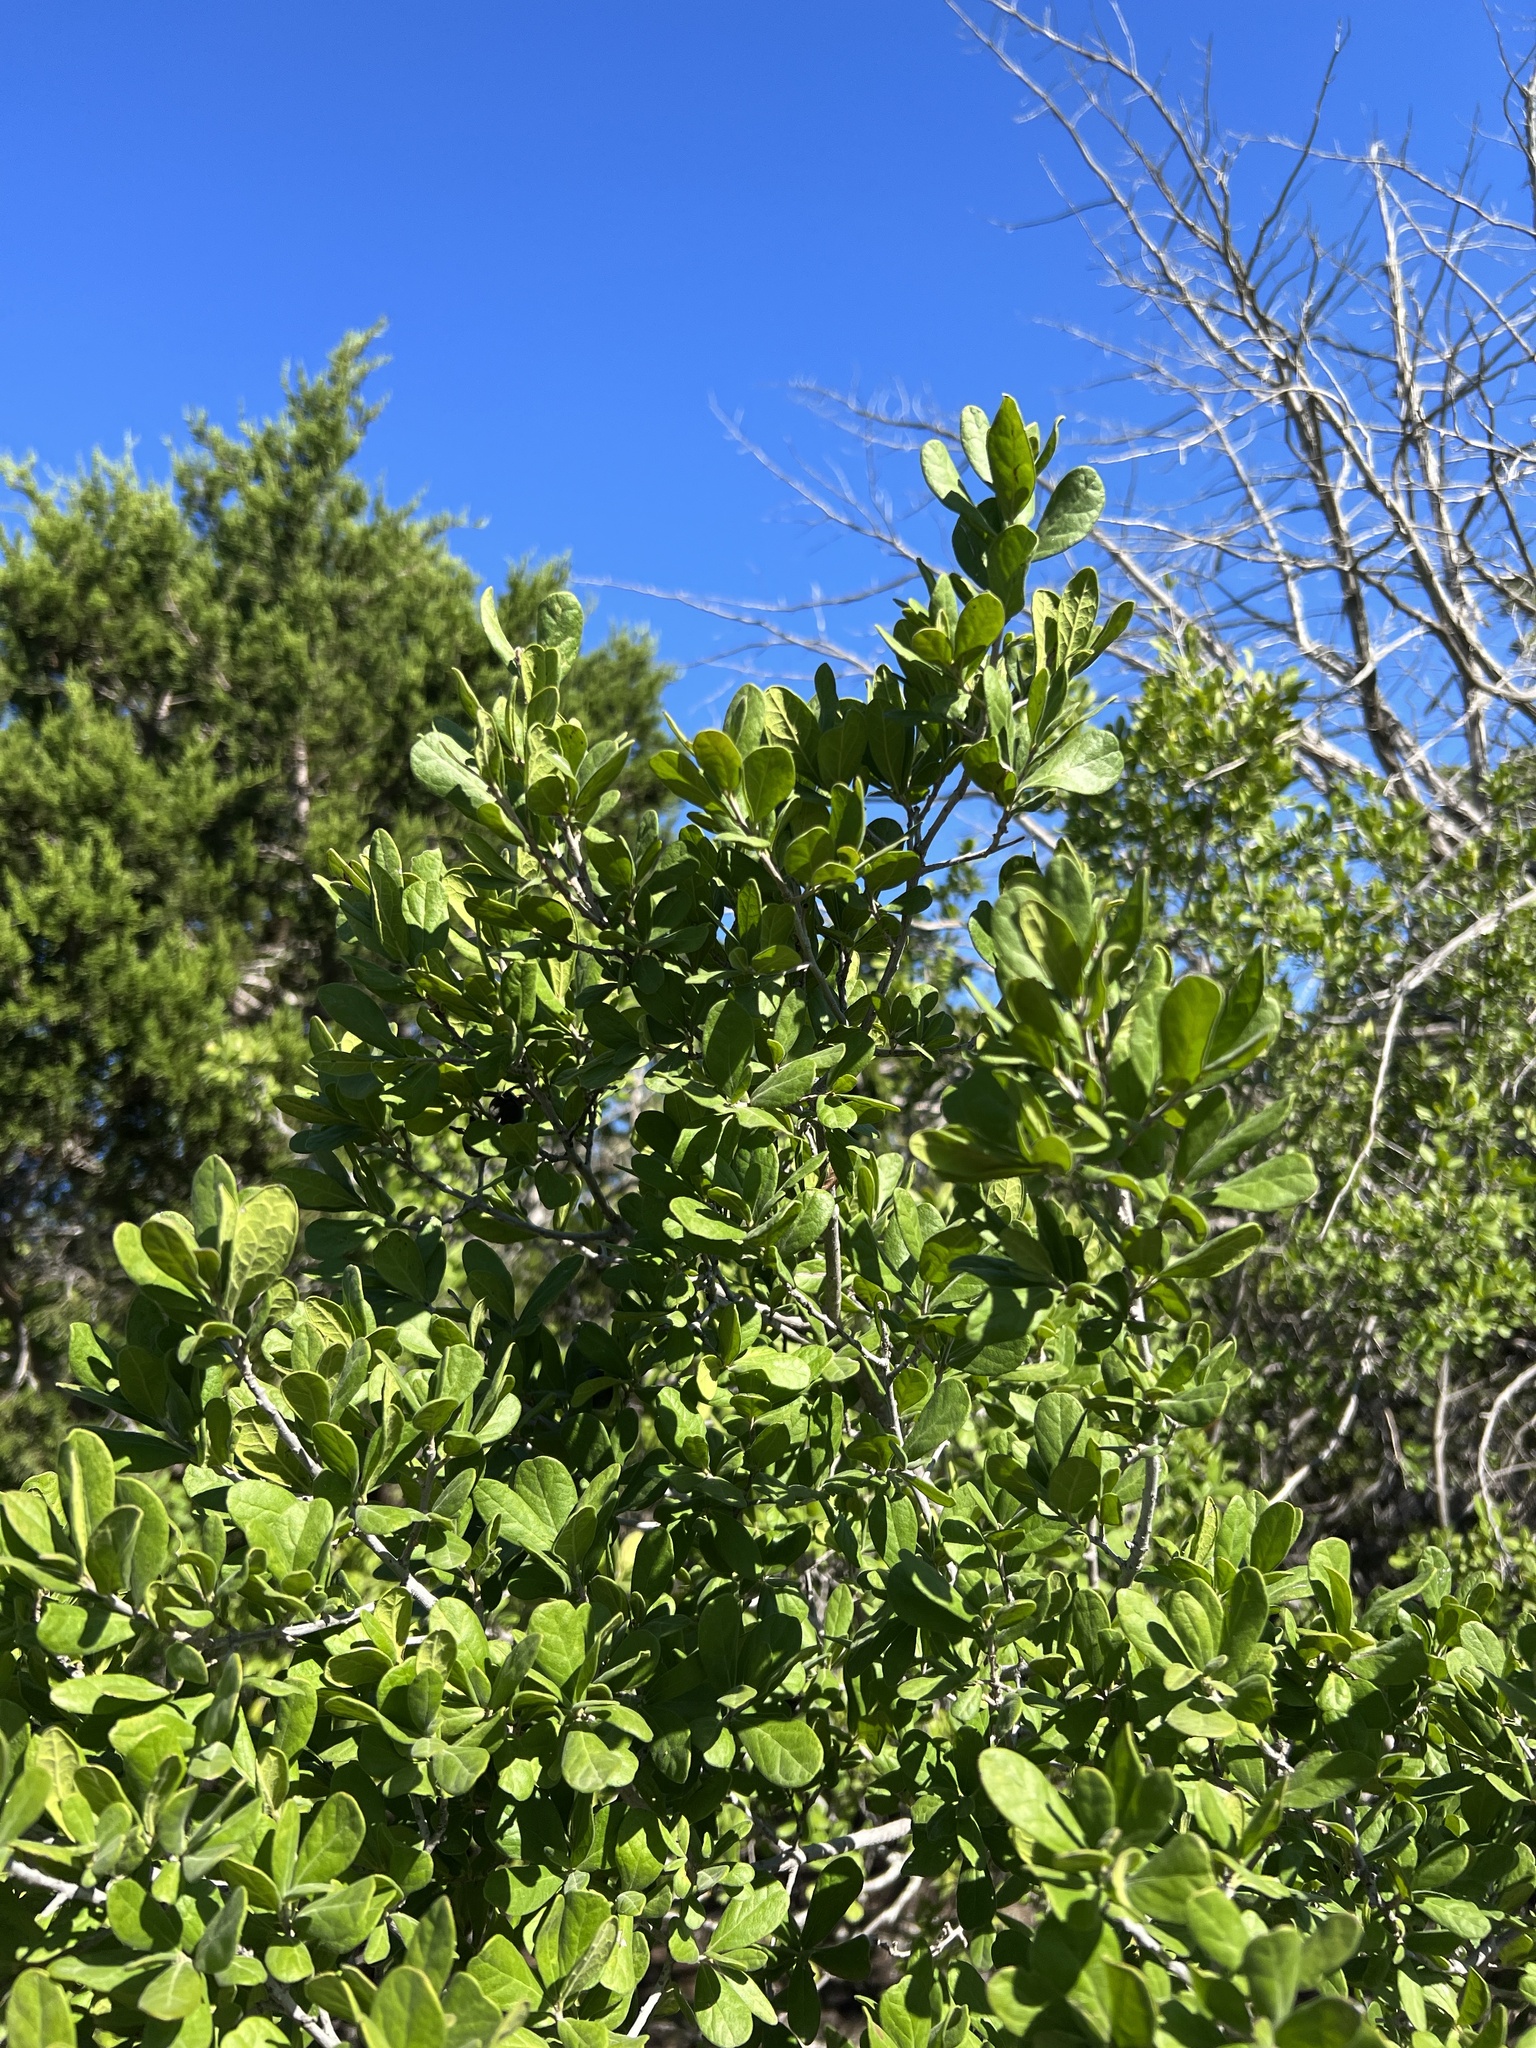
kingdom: Plantae
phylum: Tracheophyta
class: Magnoliopsida
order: Ericales
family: Ebenaceae
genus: Diospyros
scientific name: Diospyros texana
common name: Texas persimmon
